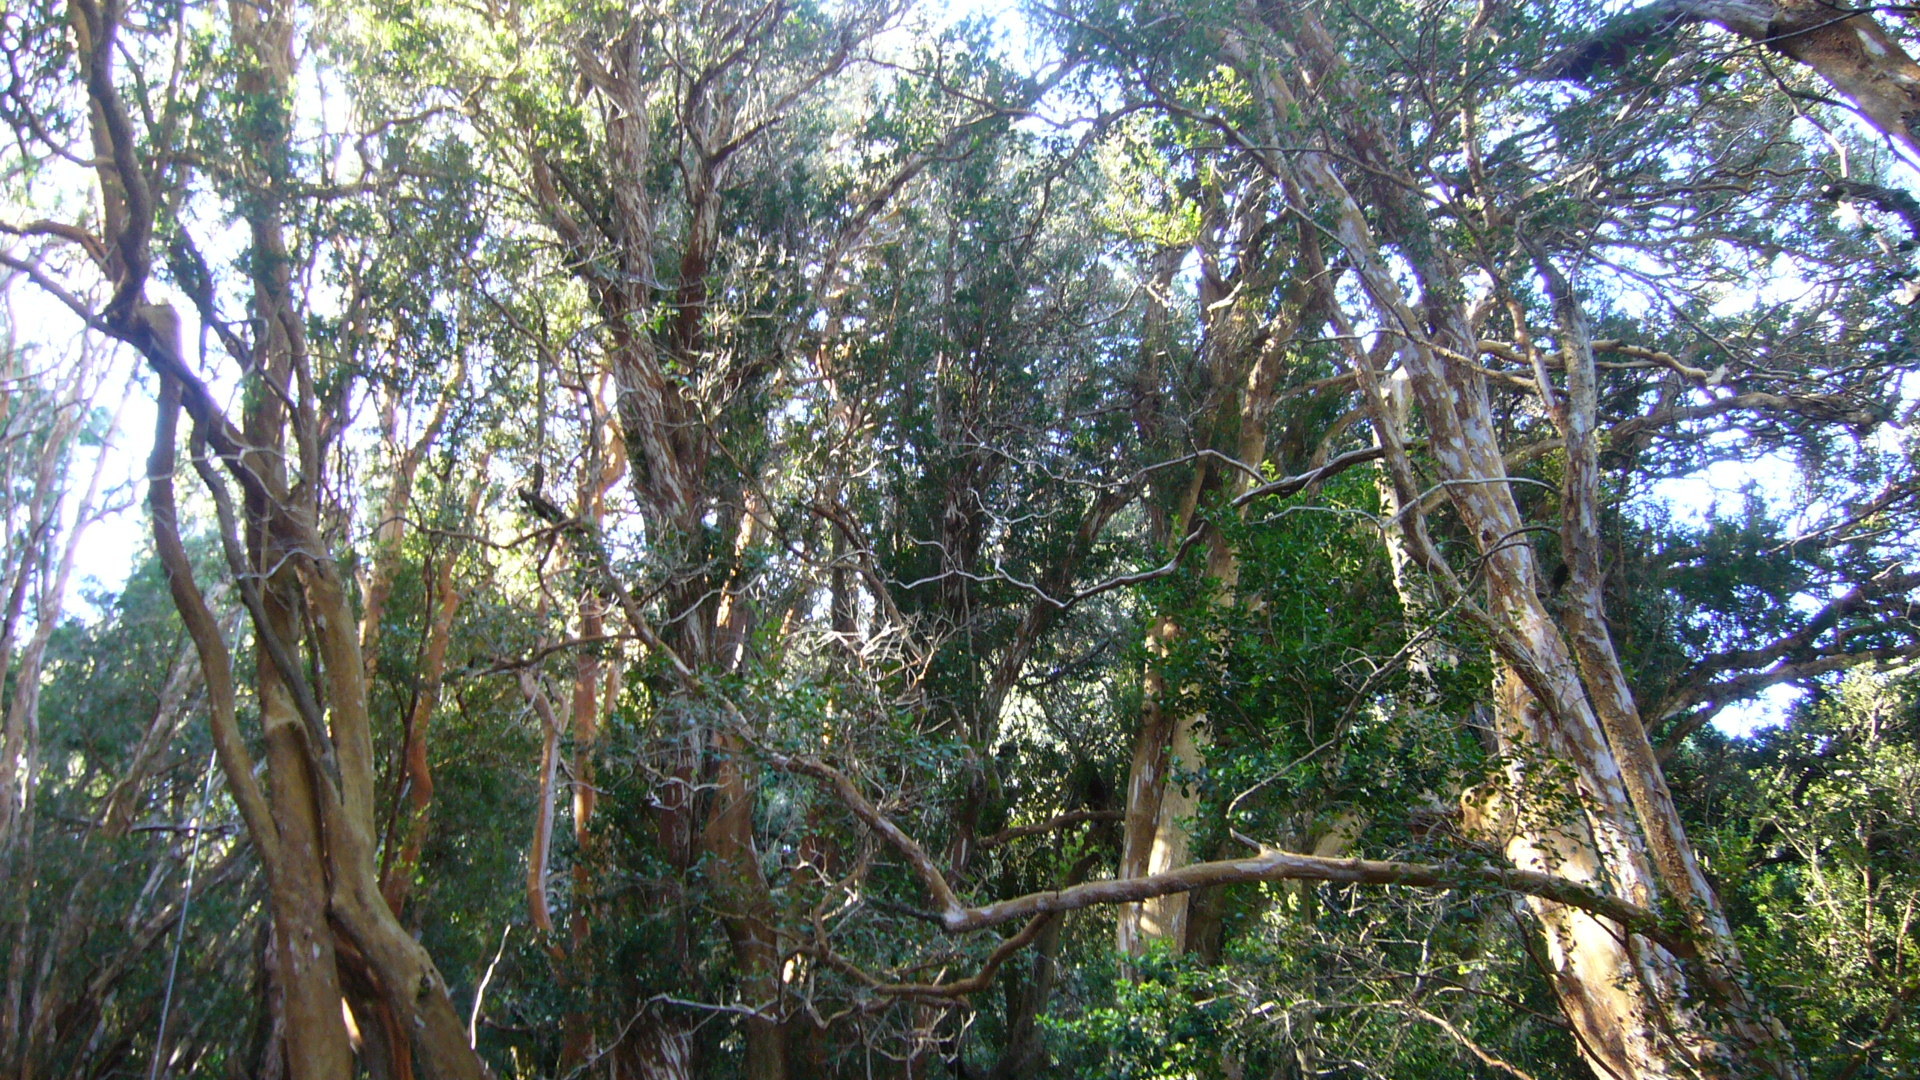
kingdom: Plantae
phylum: Tracheophyta
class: Magnoliopsida
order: Myrtales
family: Myrtaceae
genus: Luma
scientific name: Luma apiculata
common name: Chilean myrtle
